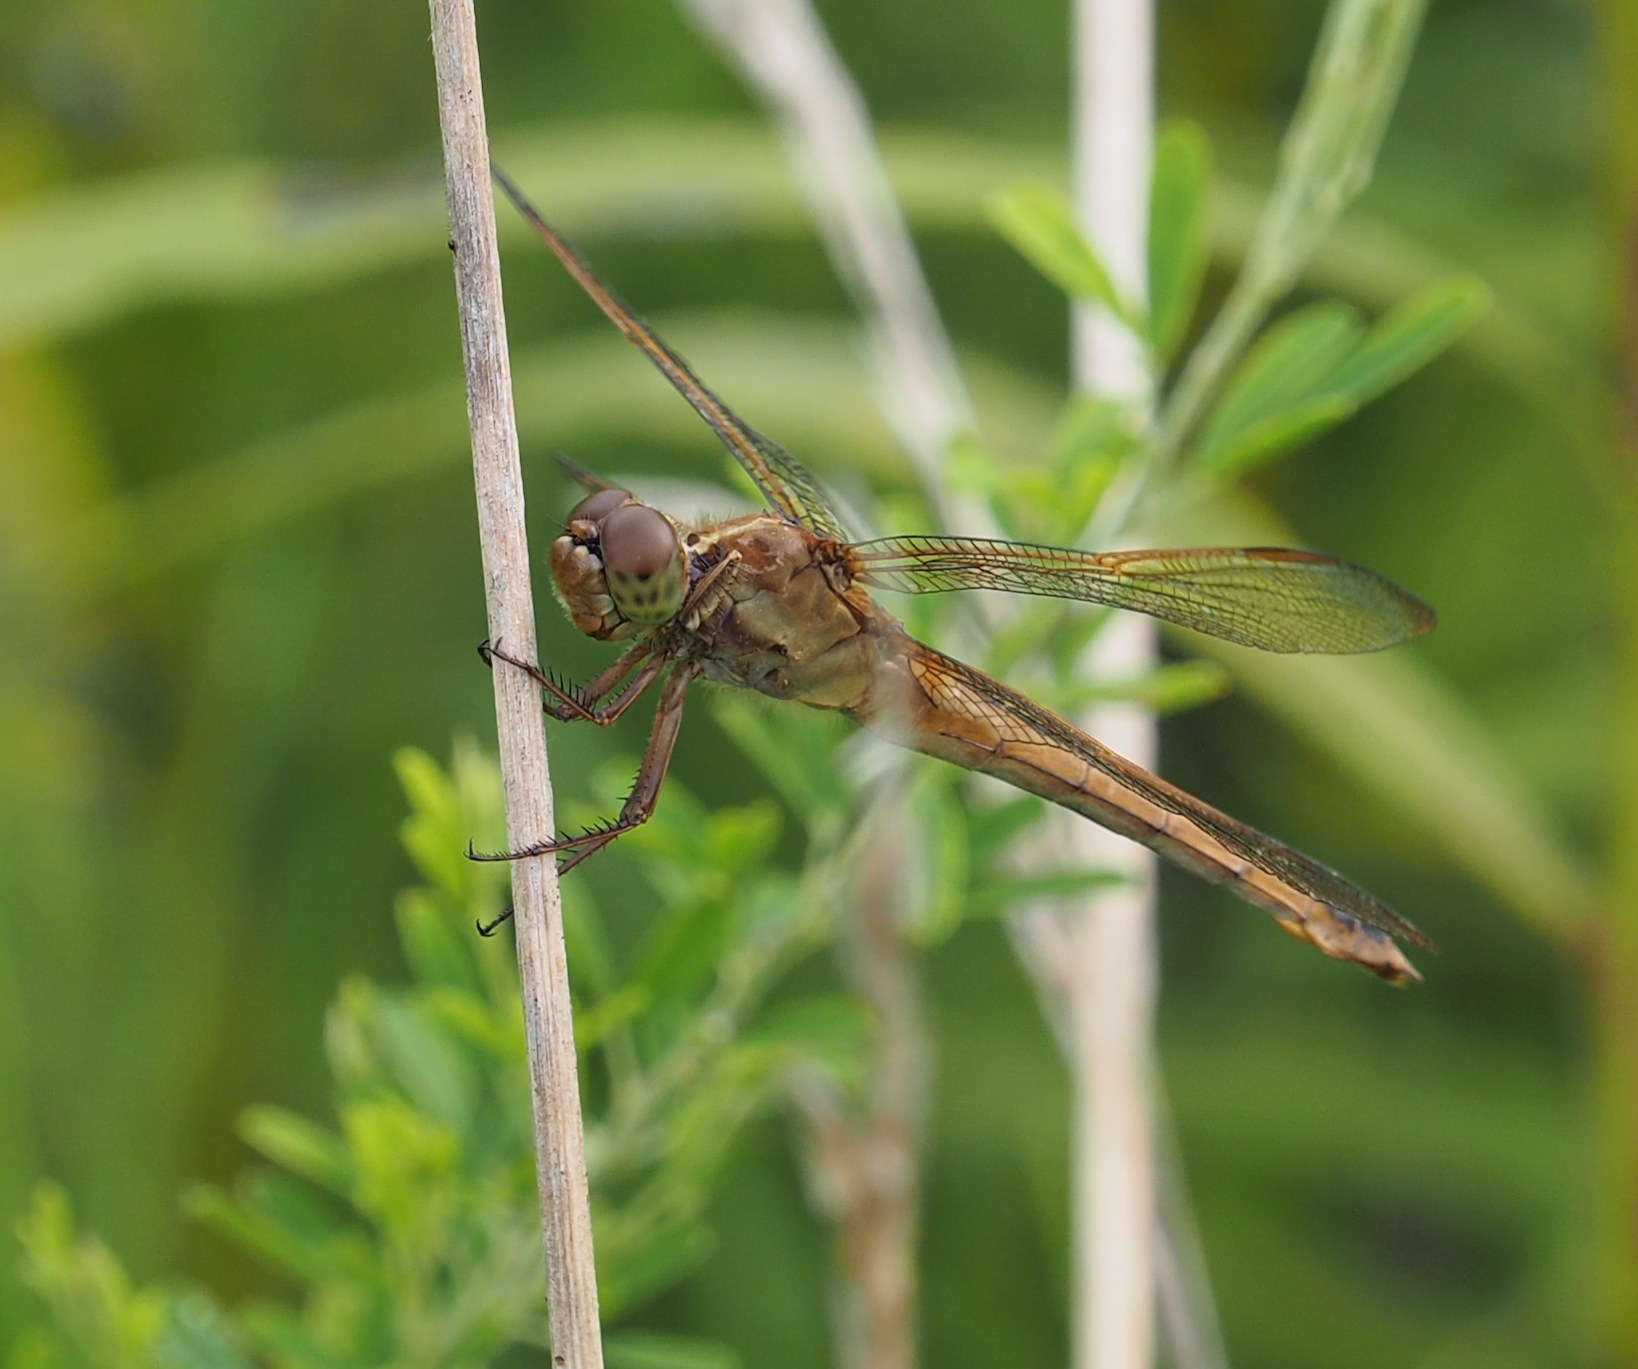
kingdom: Animalia
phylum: Arthropoda
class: Insecta
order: Odonata
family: Libellulidae
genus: Libellula
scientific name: Libellula needhami
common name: Needham's skimmer
